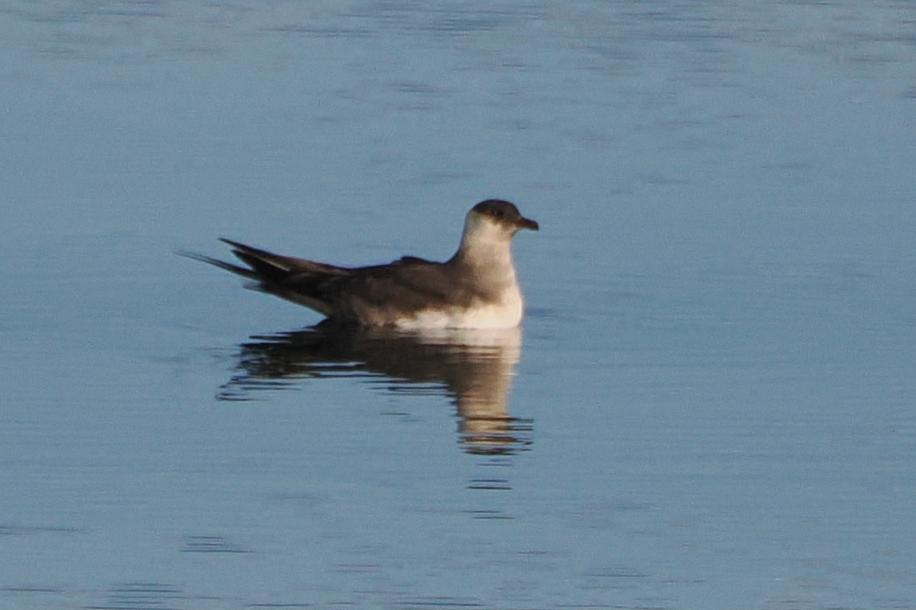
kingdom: Animalia
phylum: Chordata
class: Aves
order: Charadriiformes
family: Stercorariidae
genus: Stercorarius
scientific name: Stercorarius parasiticus
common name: Parasitic jaeger
